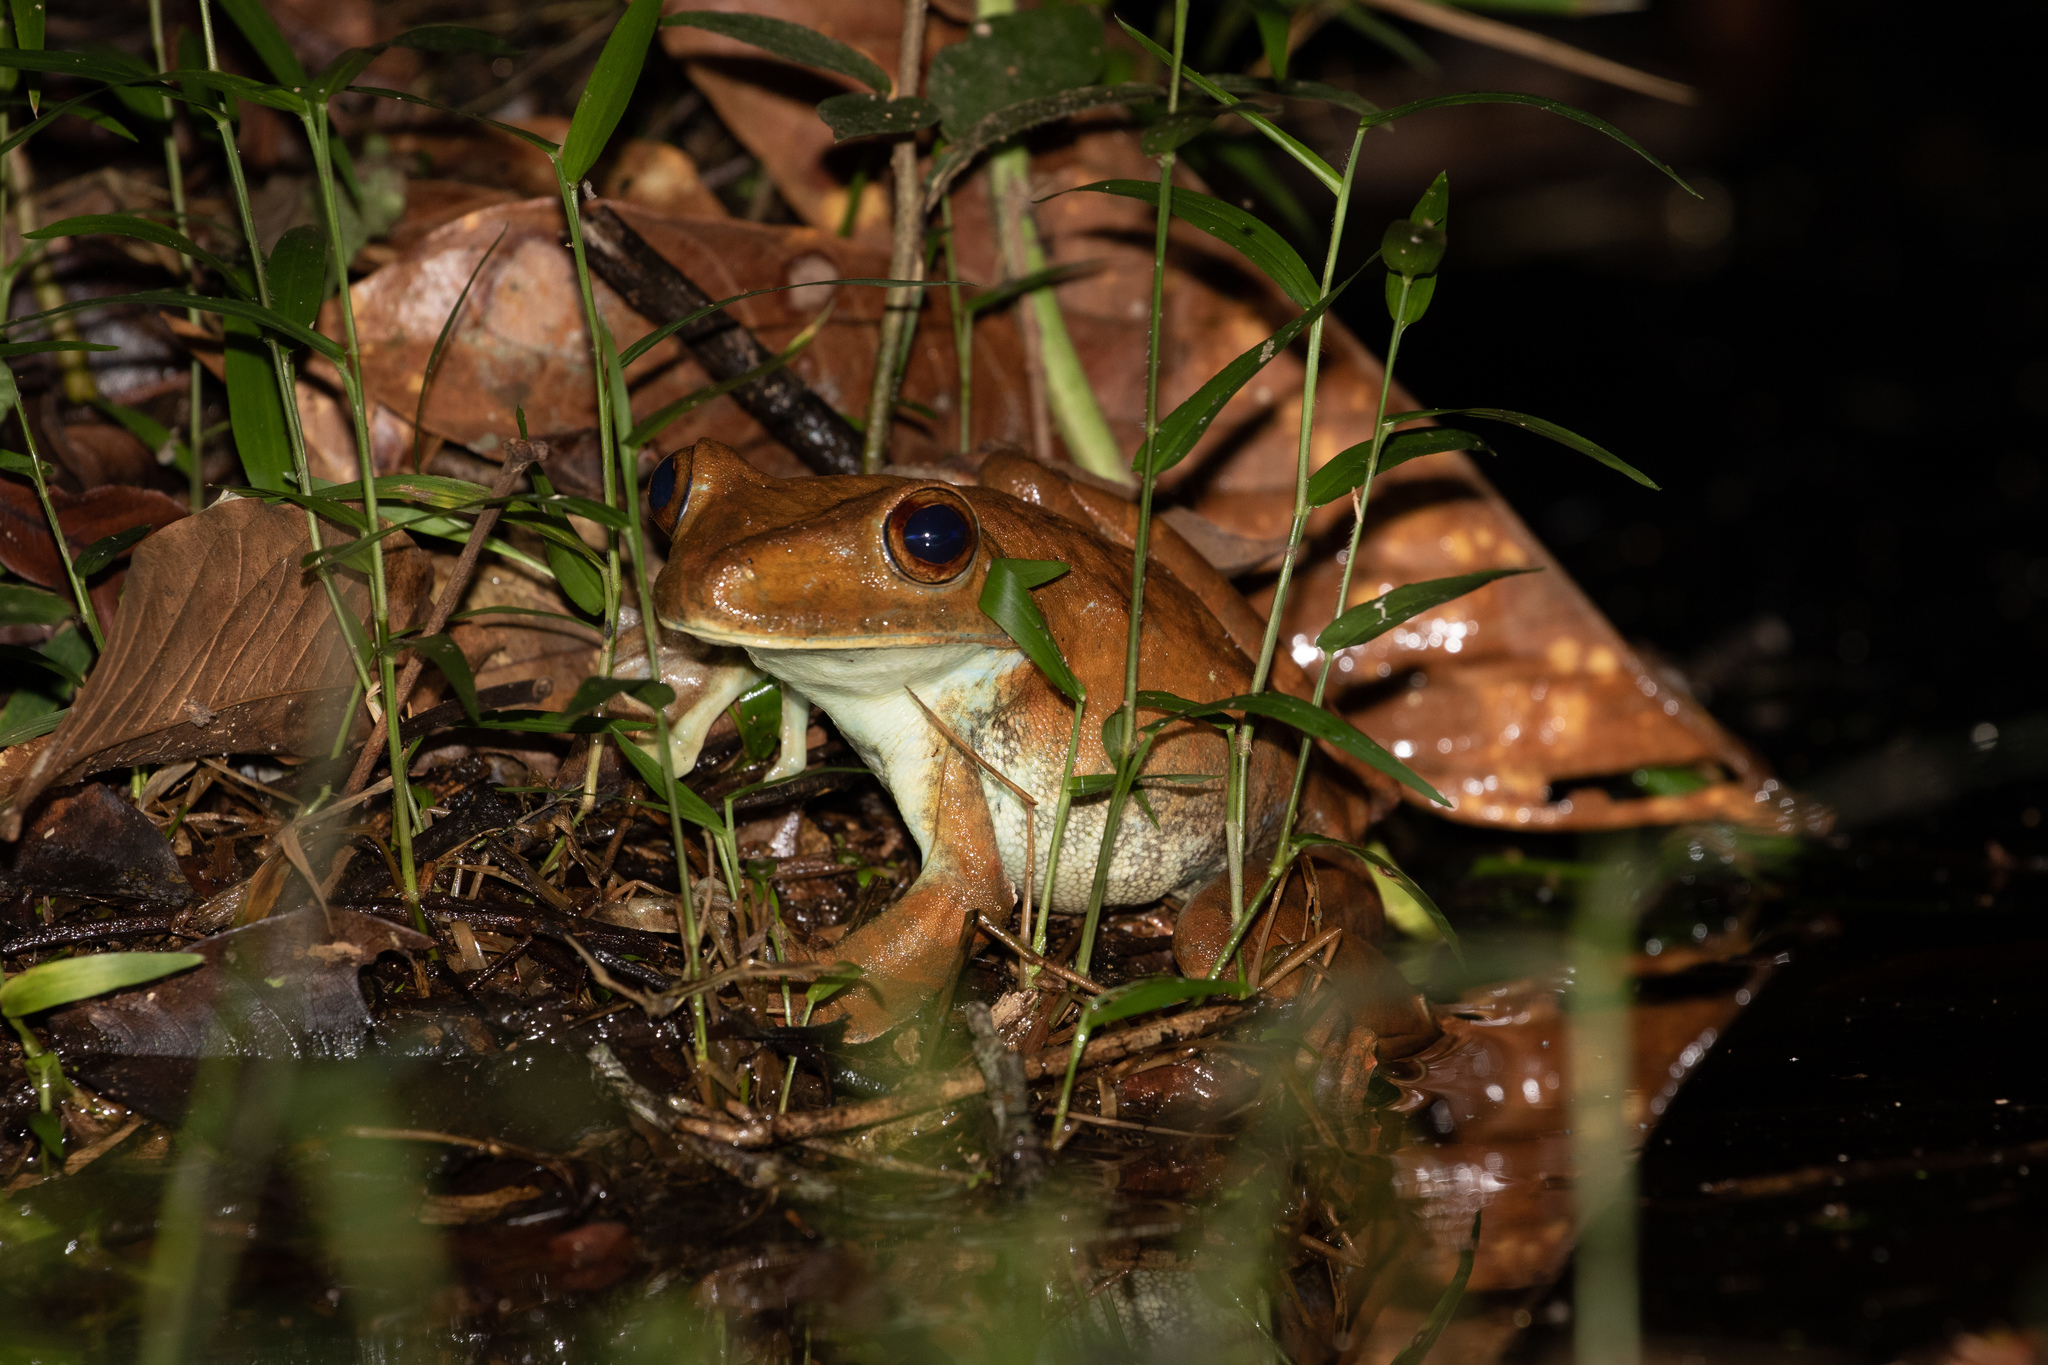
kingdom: Animalia
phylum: Chordata
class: Amphibia
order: Anura
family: Hylidae
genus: Boana
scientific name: Boana boans
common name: Giant gladiator treefrog
